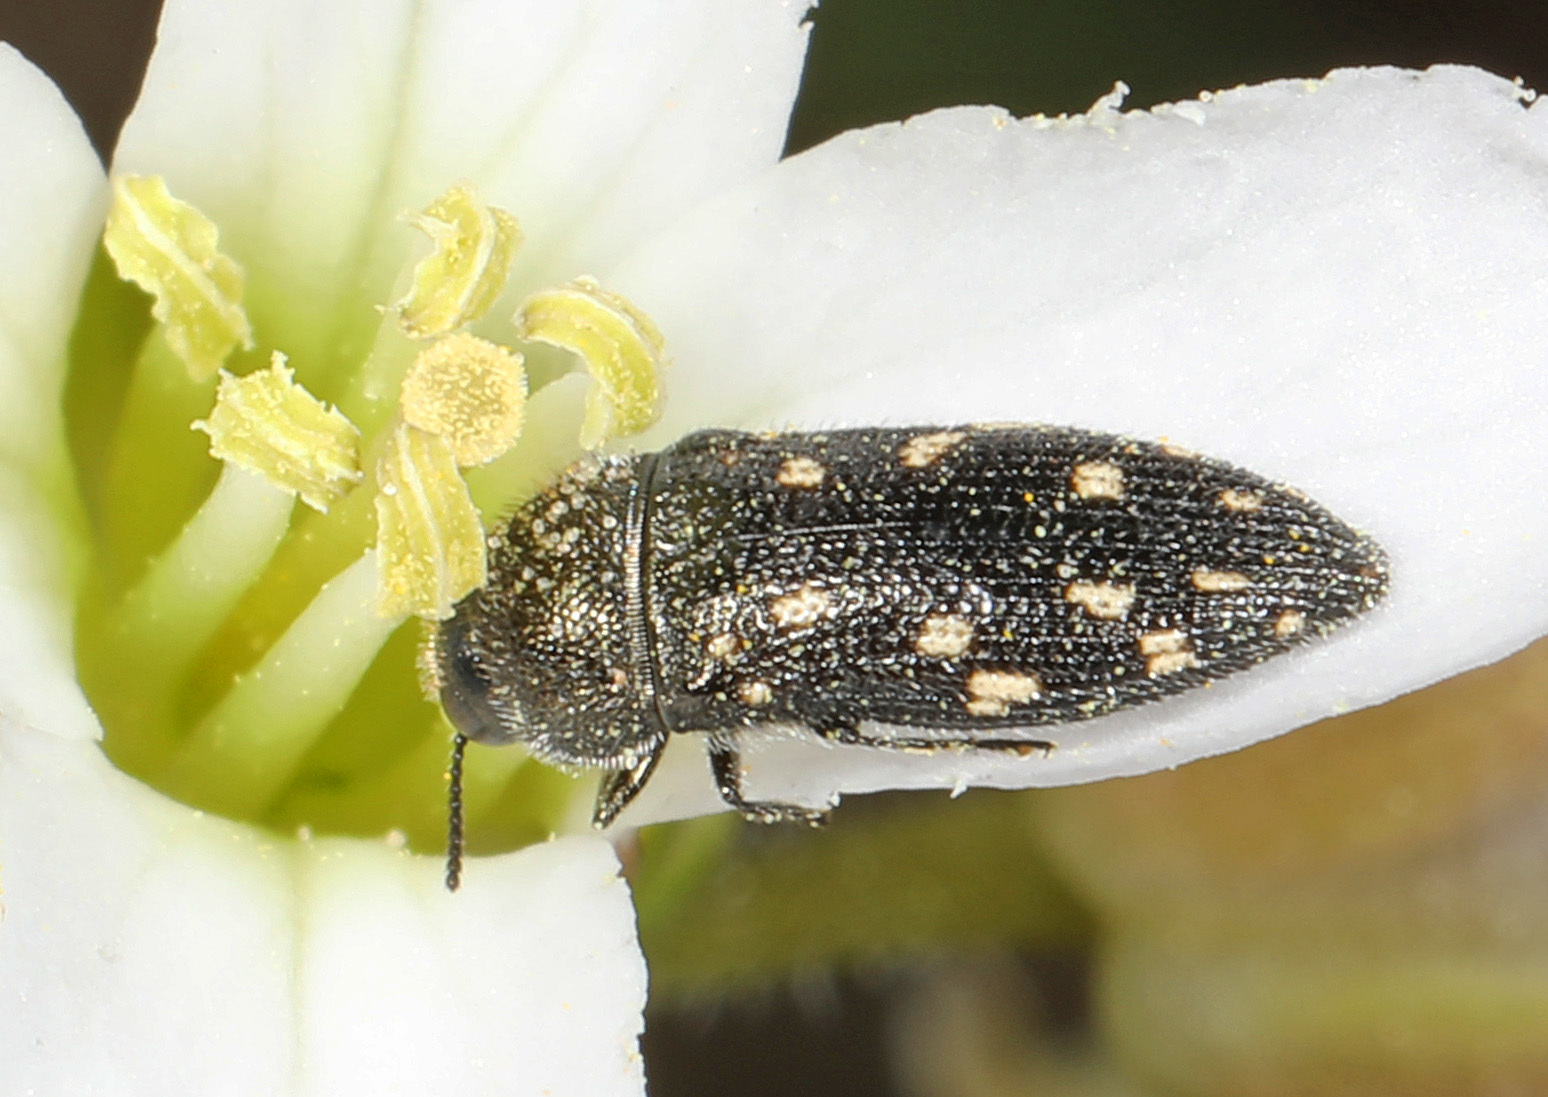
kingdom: Animalia
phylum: Arthropoda
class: Insecta
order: Coleoptera
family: Buprestidae
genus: Acmaeodera
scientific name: Acmaeodera tubulus
